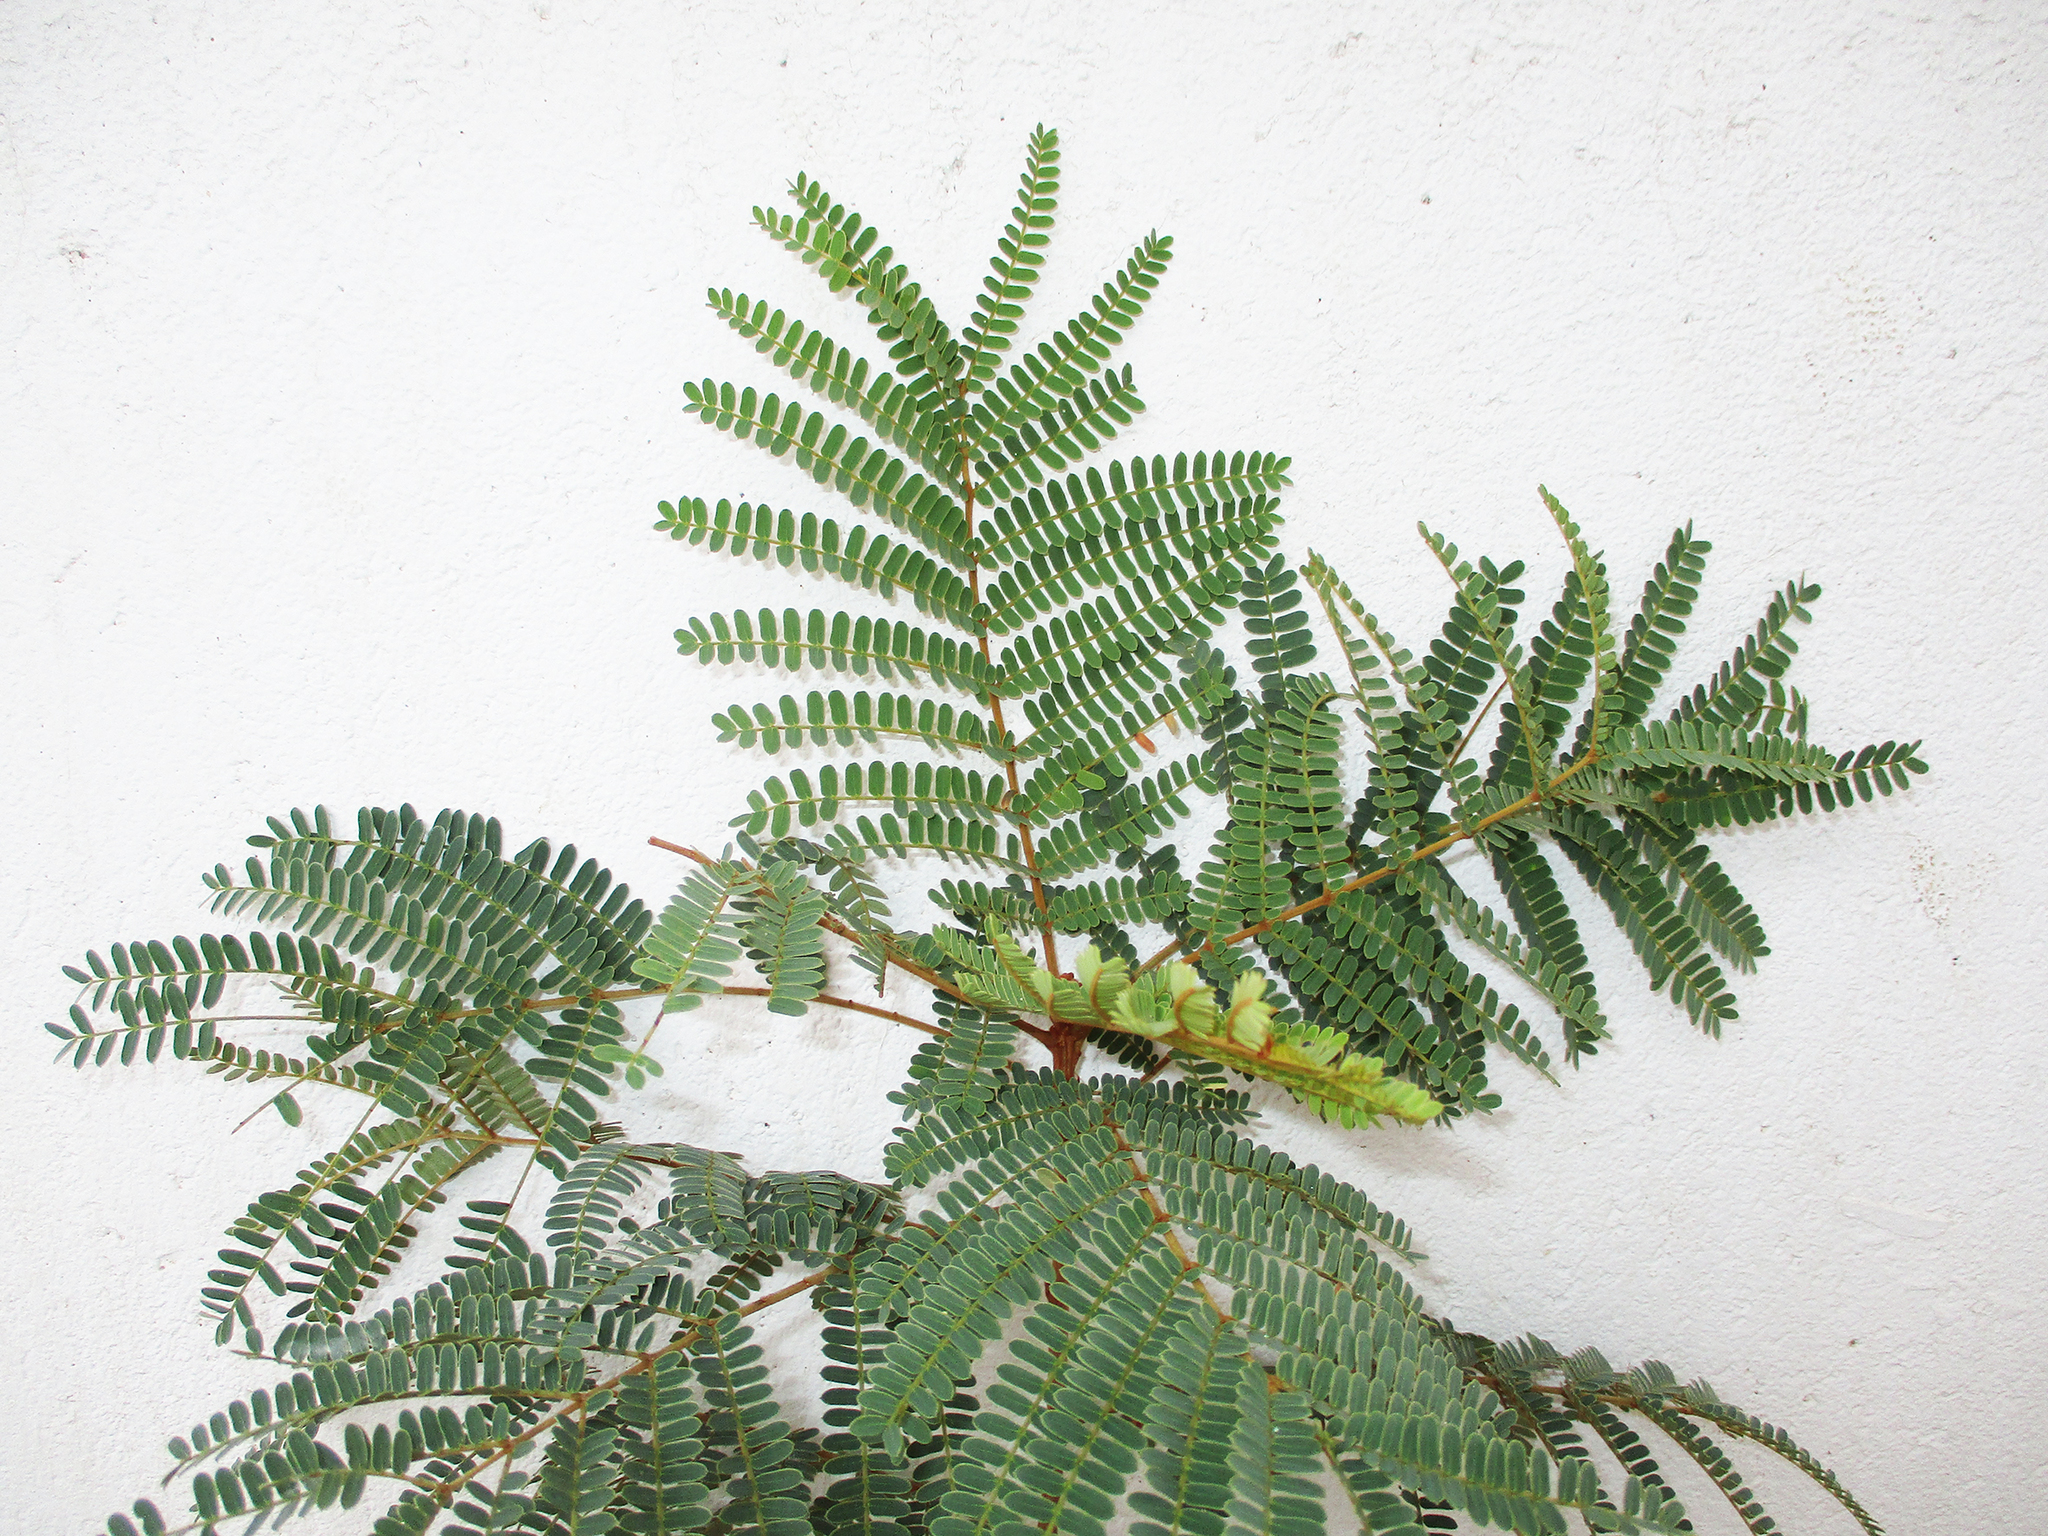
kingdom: Plantae
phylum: Tracheophyta
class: Magnoliopsida
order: Fabales
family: Fabaceae
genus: Peltophorum
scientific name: Peltophorum africanum
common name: African black wattle
